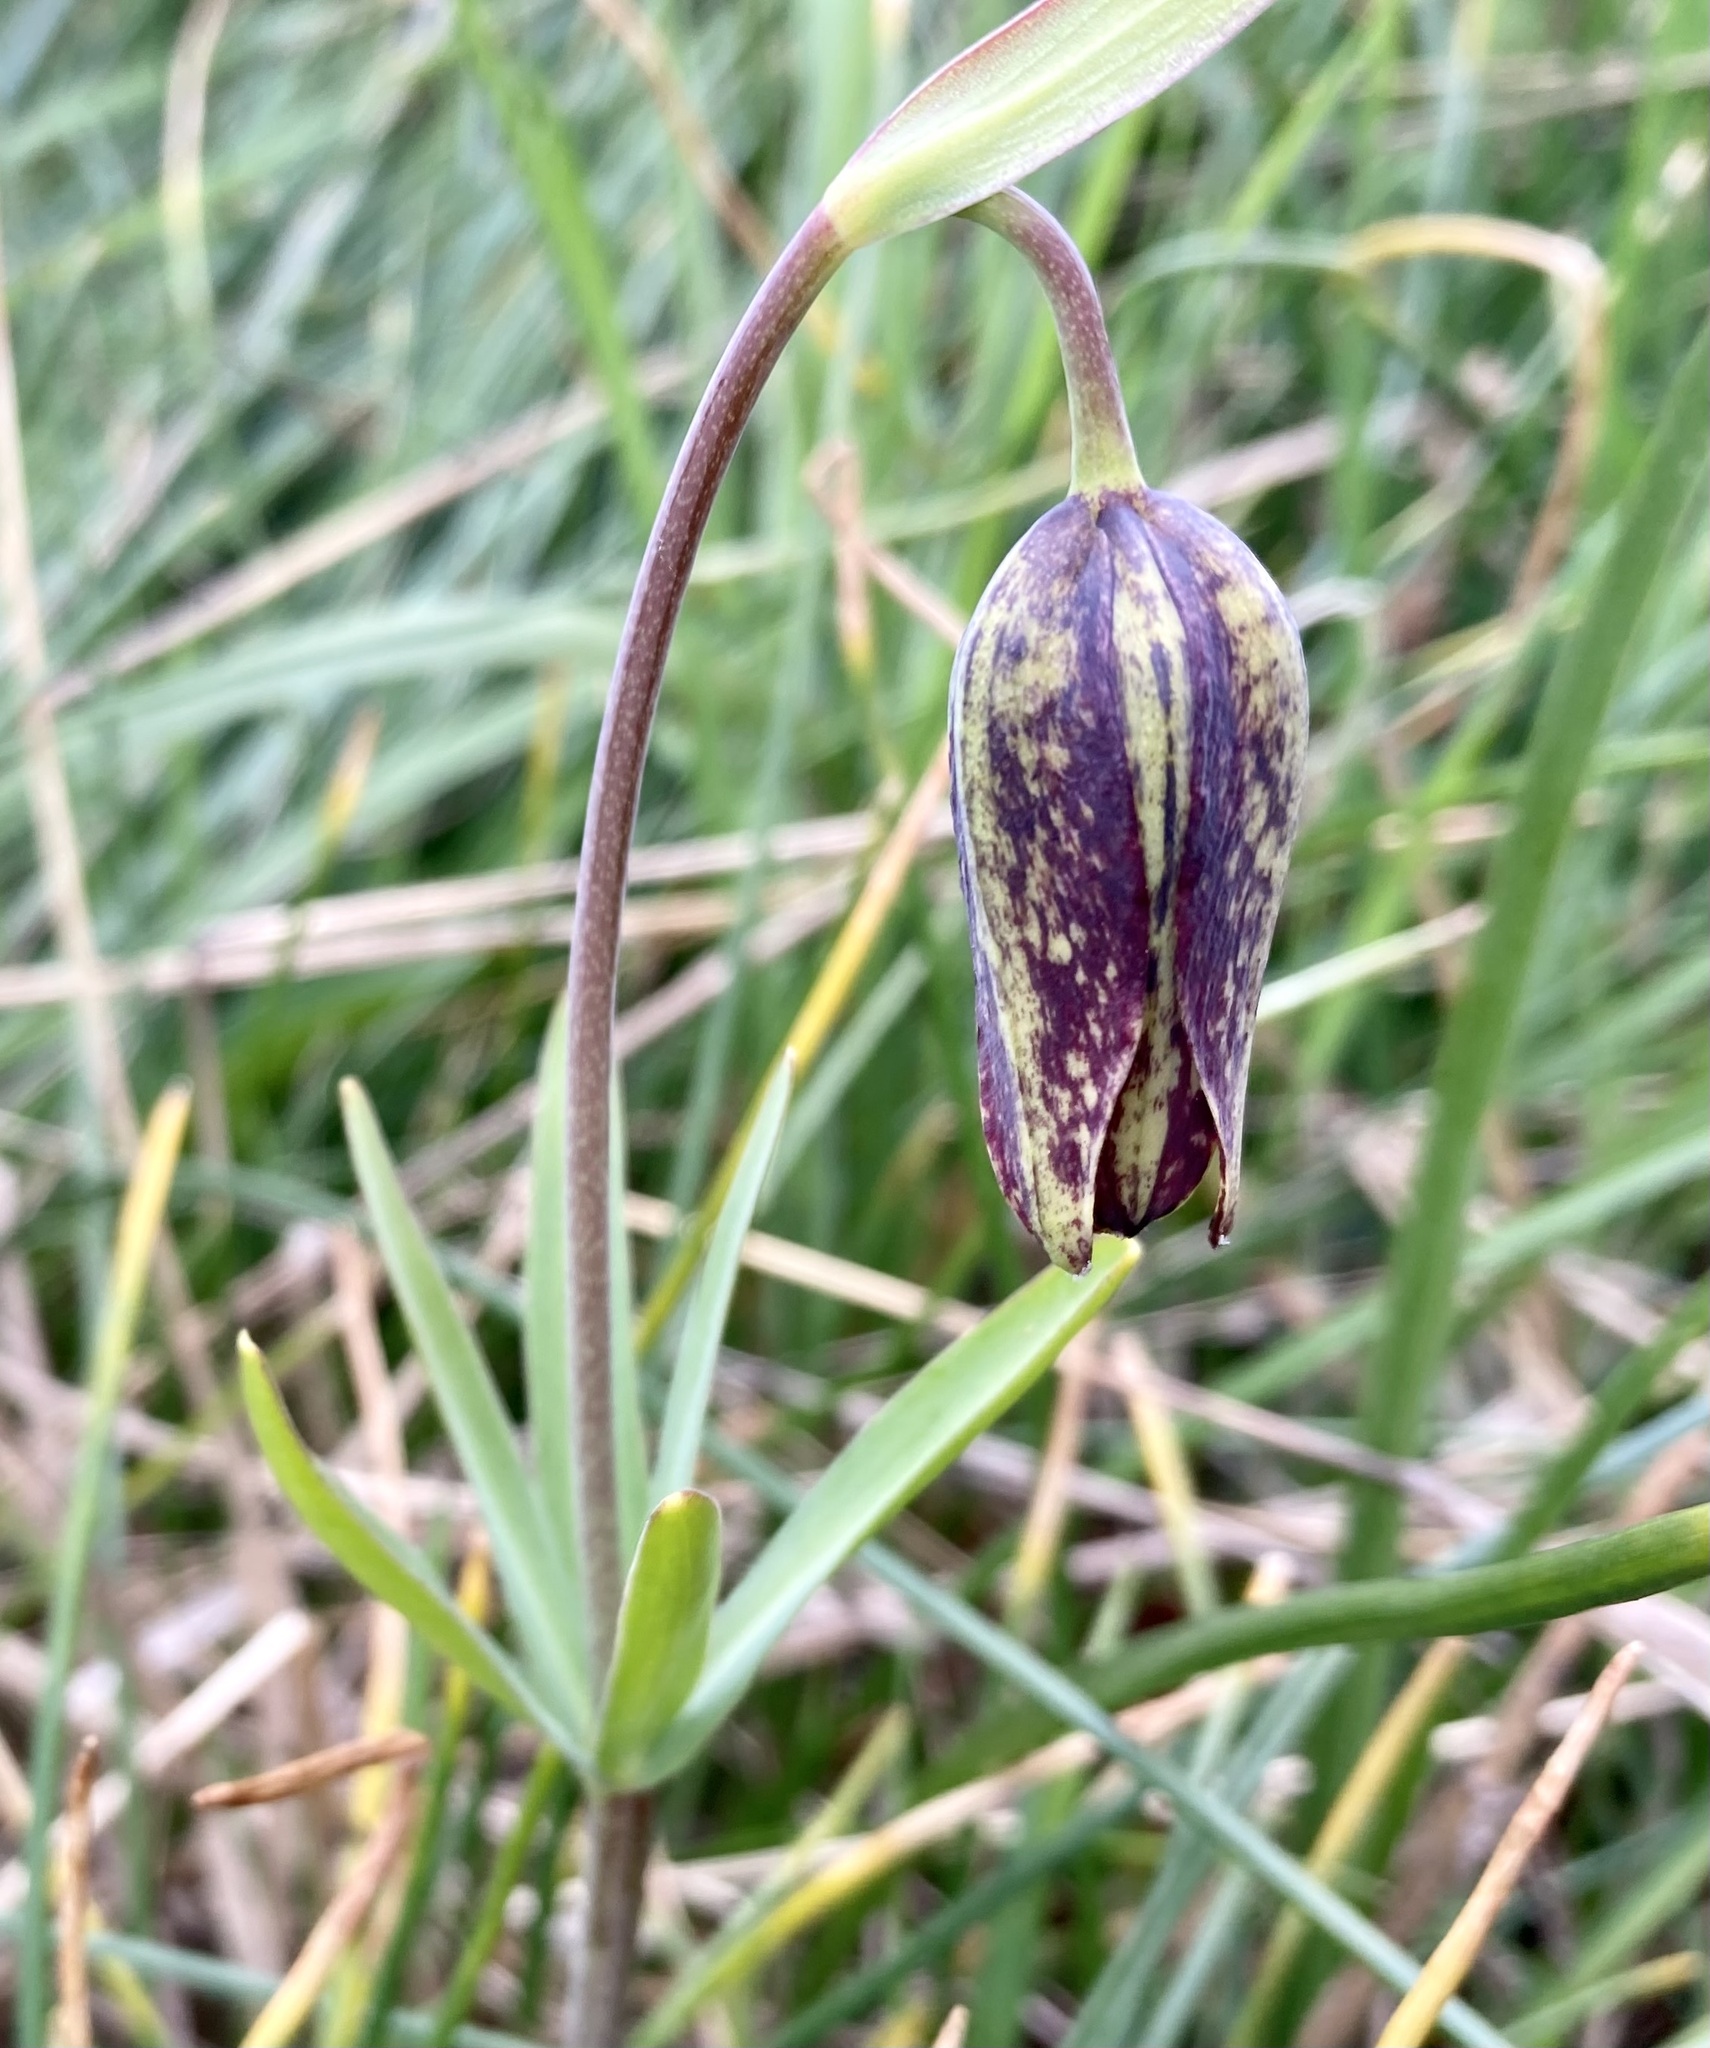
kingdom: Plantae
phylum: Tracheophyta
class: Liliopsida
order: Liliales
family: Liliaceae
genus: Fritillaria
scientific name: Fritillaria affinis
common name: Ojai fritillary
